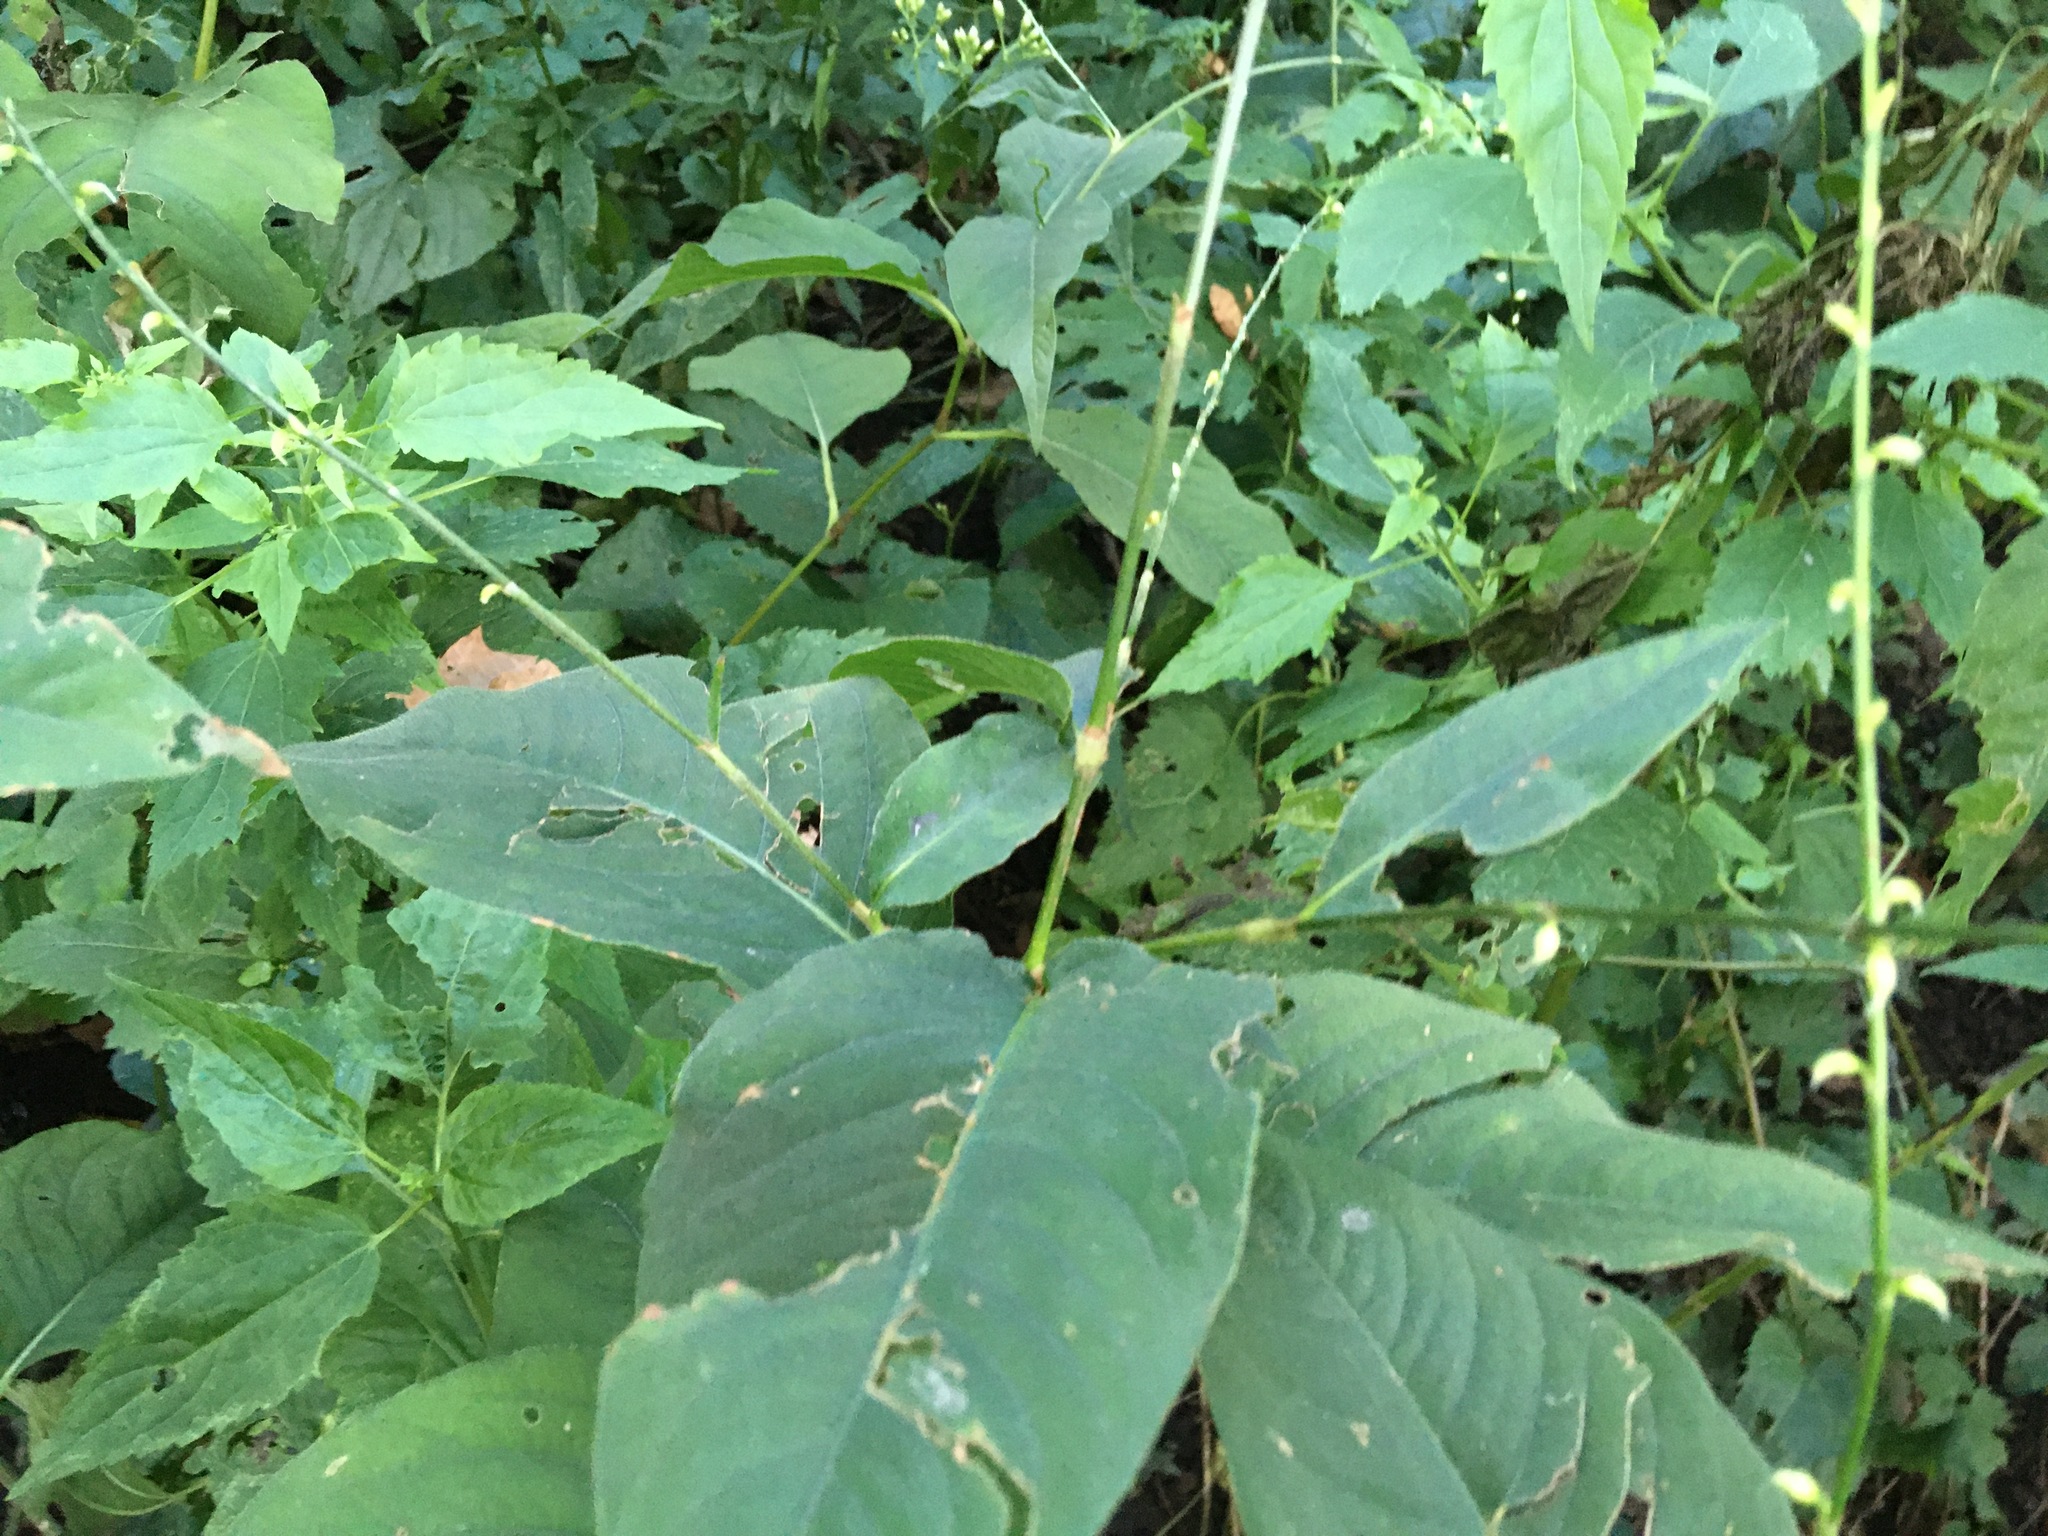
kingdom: Plantae
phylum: Tracheophyta
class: Magnoliopsida
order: Caryophyllales
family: Polygonaceae
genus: Persicaria
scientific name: Persicaria virginiana
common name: Jumpseed
